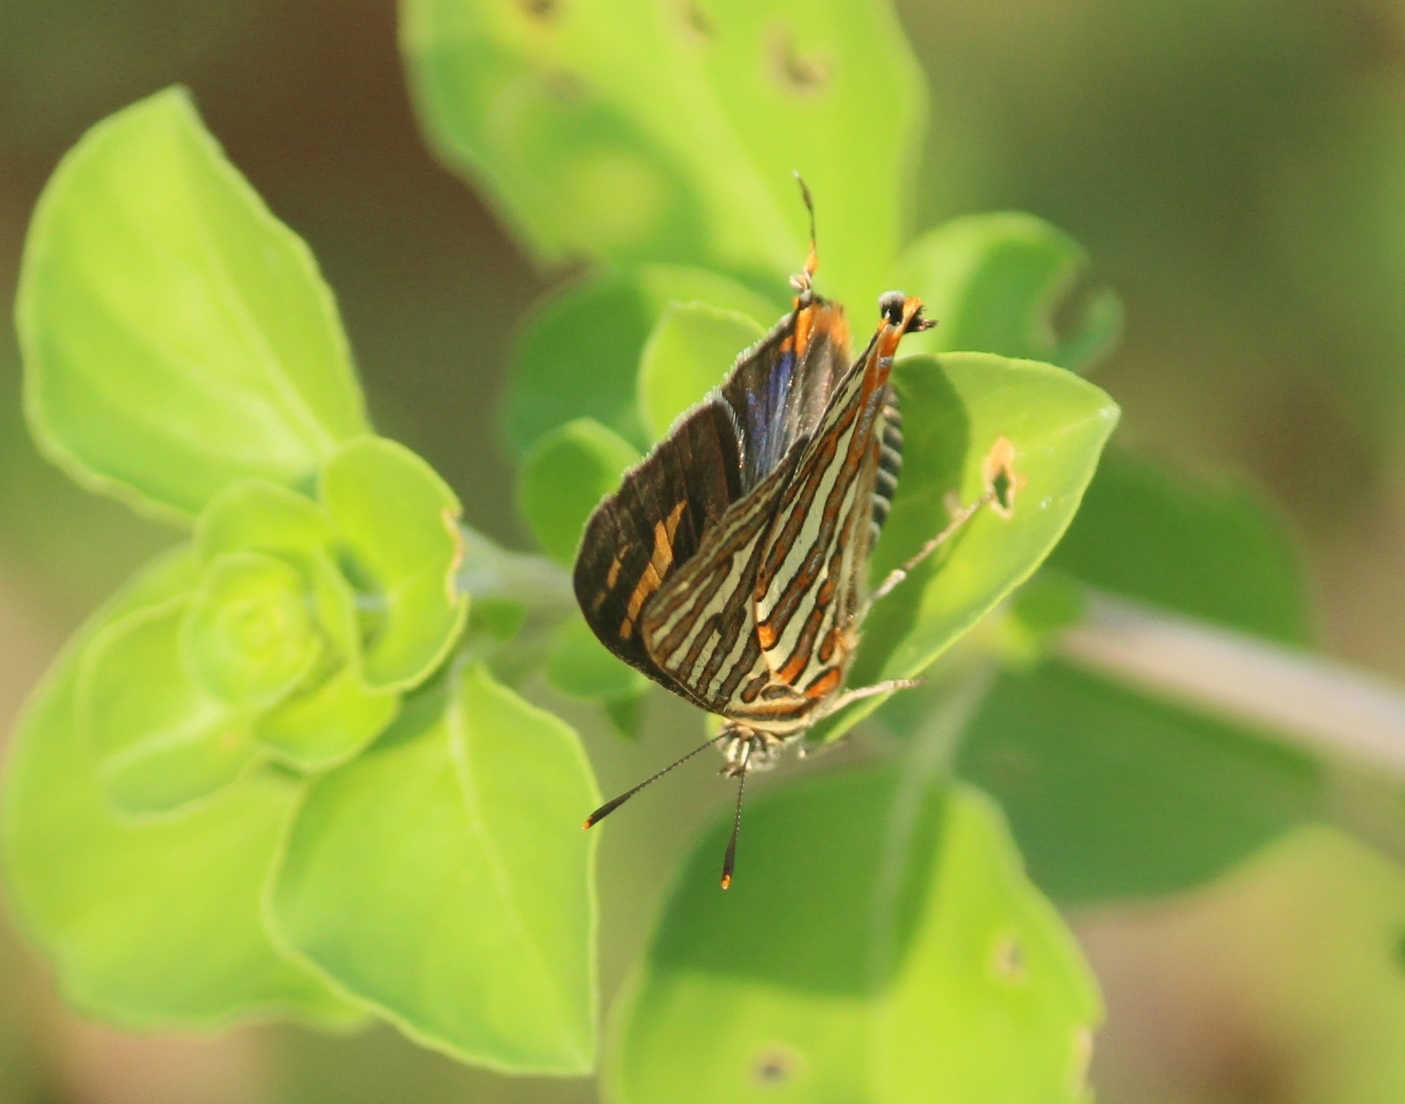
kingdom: Animalia
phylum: Arthropoda
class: Insecta
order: Lepidoptera
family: Lycaenidae
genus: Cigaritis
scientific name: Cigaritis
